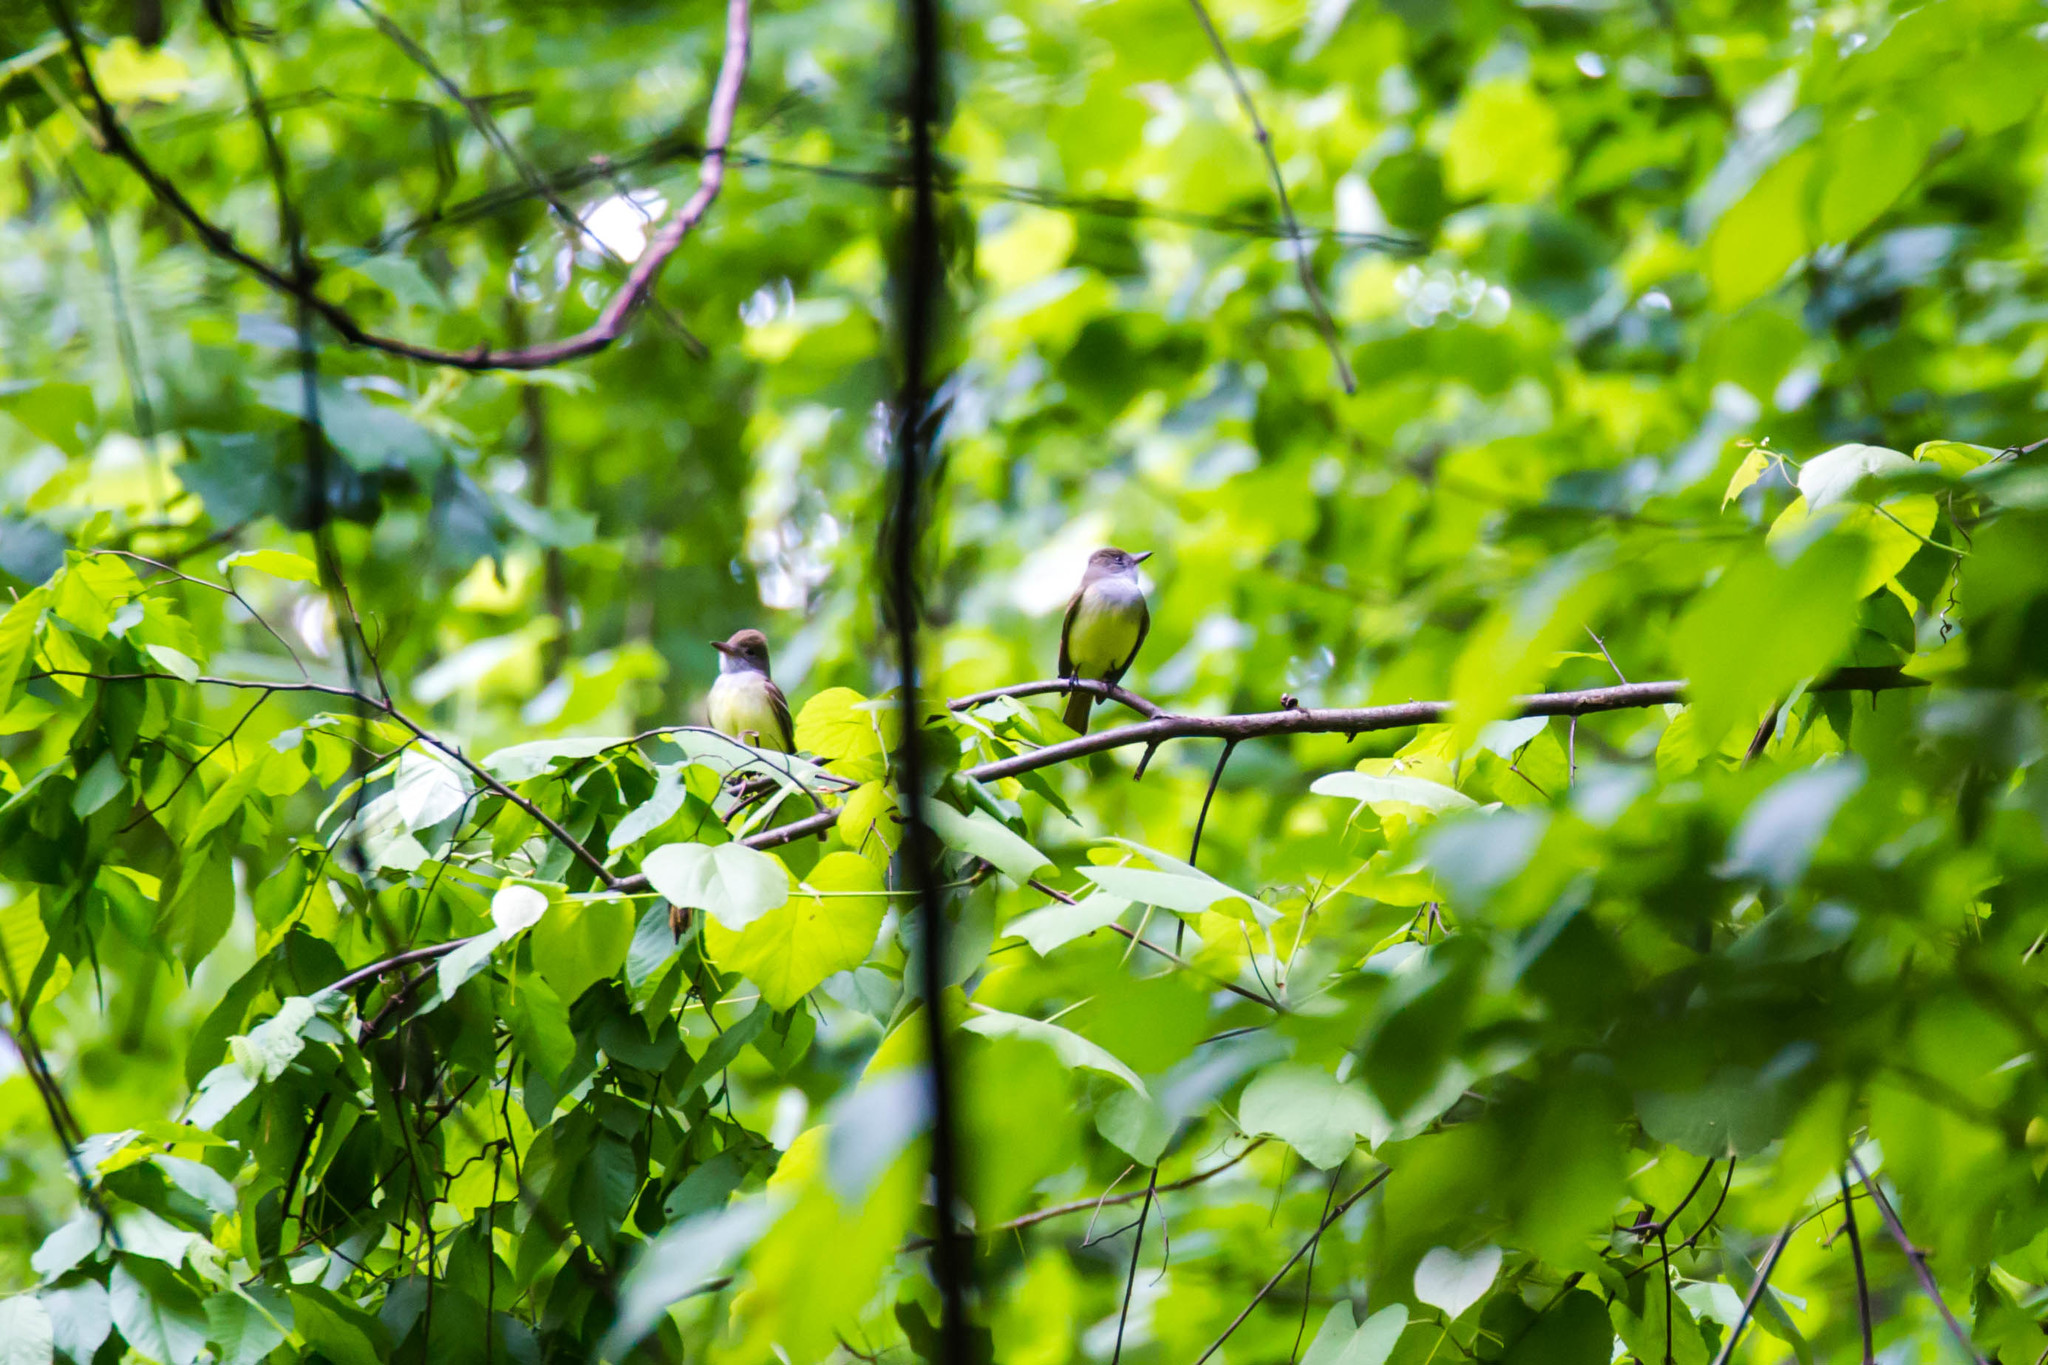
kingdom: Animalia
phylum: Chordata
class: Aves
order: Passeriformes
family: Tyrannidae
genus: Myiarchus
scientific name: Myiarchus crinitus
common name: Great crested flycatcher
